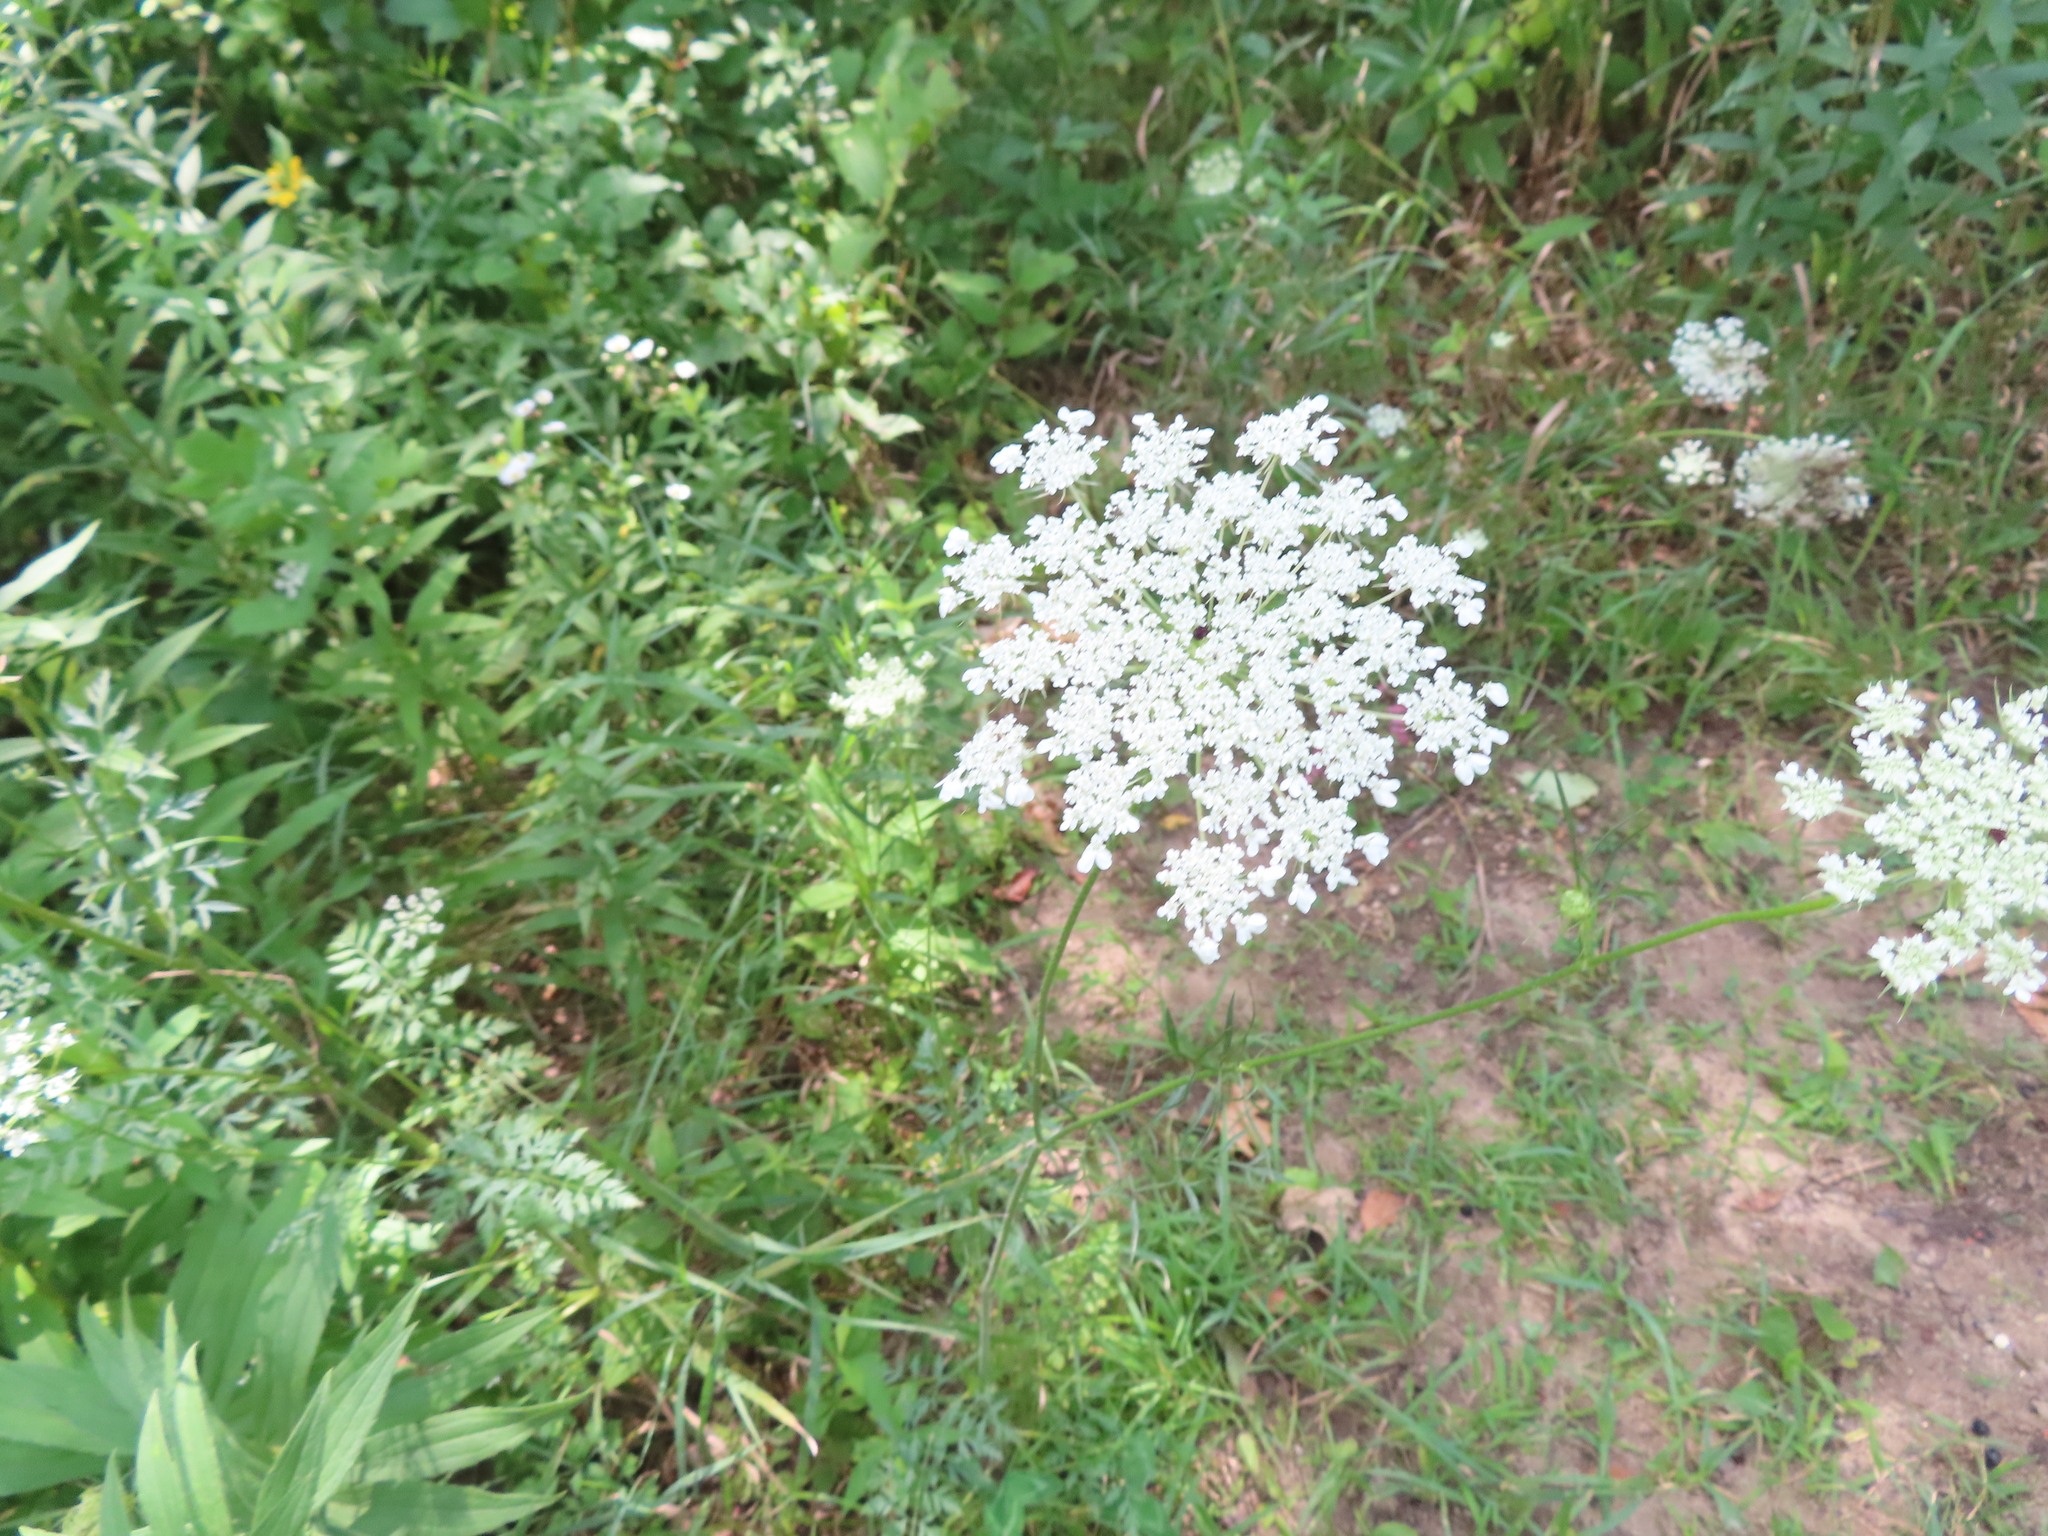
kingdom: Plantae
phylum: Tracheophyta
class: Magnoliopsida
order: Apiales
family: Apiaceae
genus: Daucus
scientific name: Daucus carota
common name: Wild carrot
